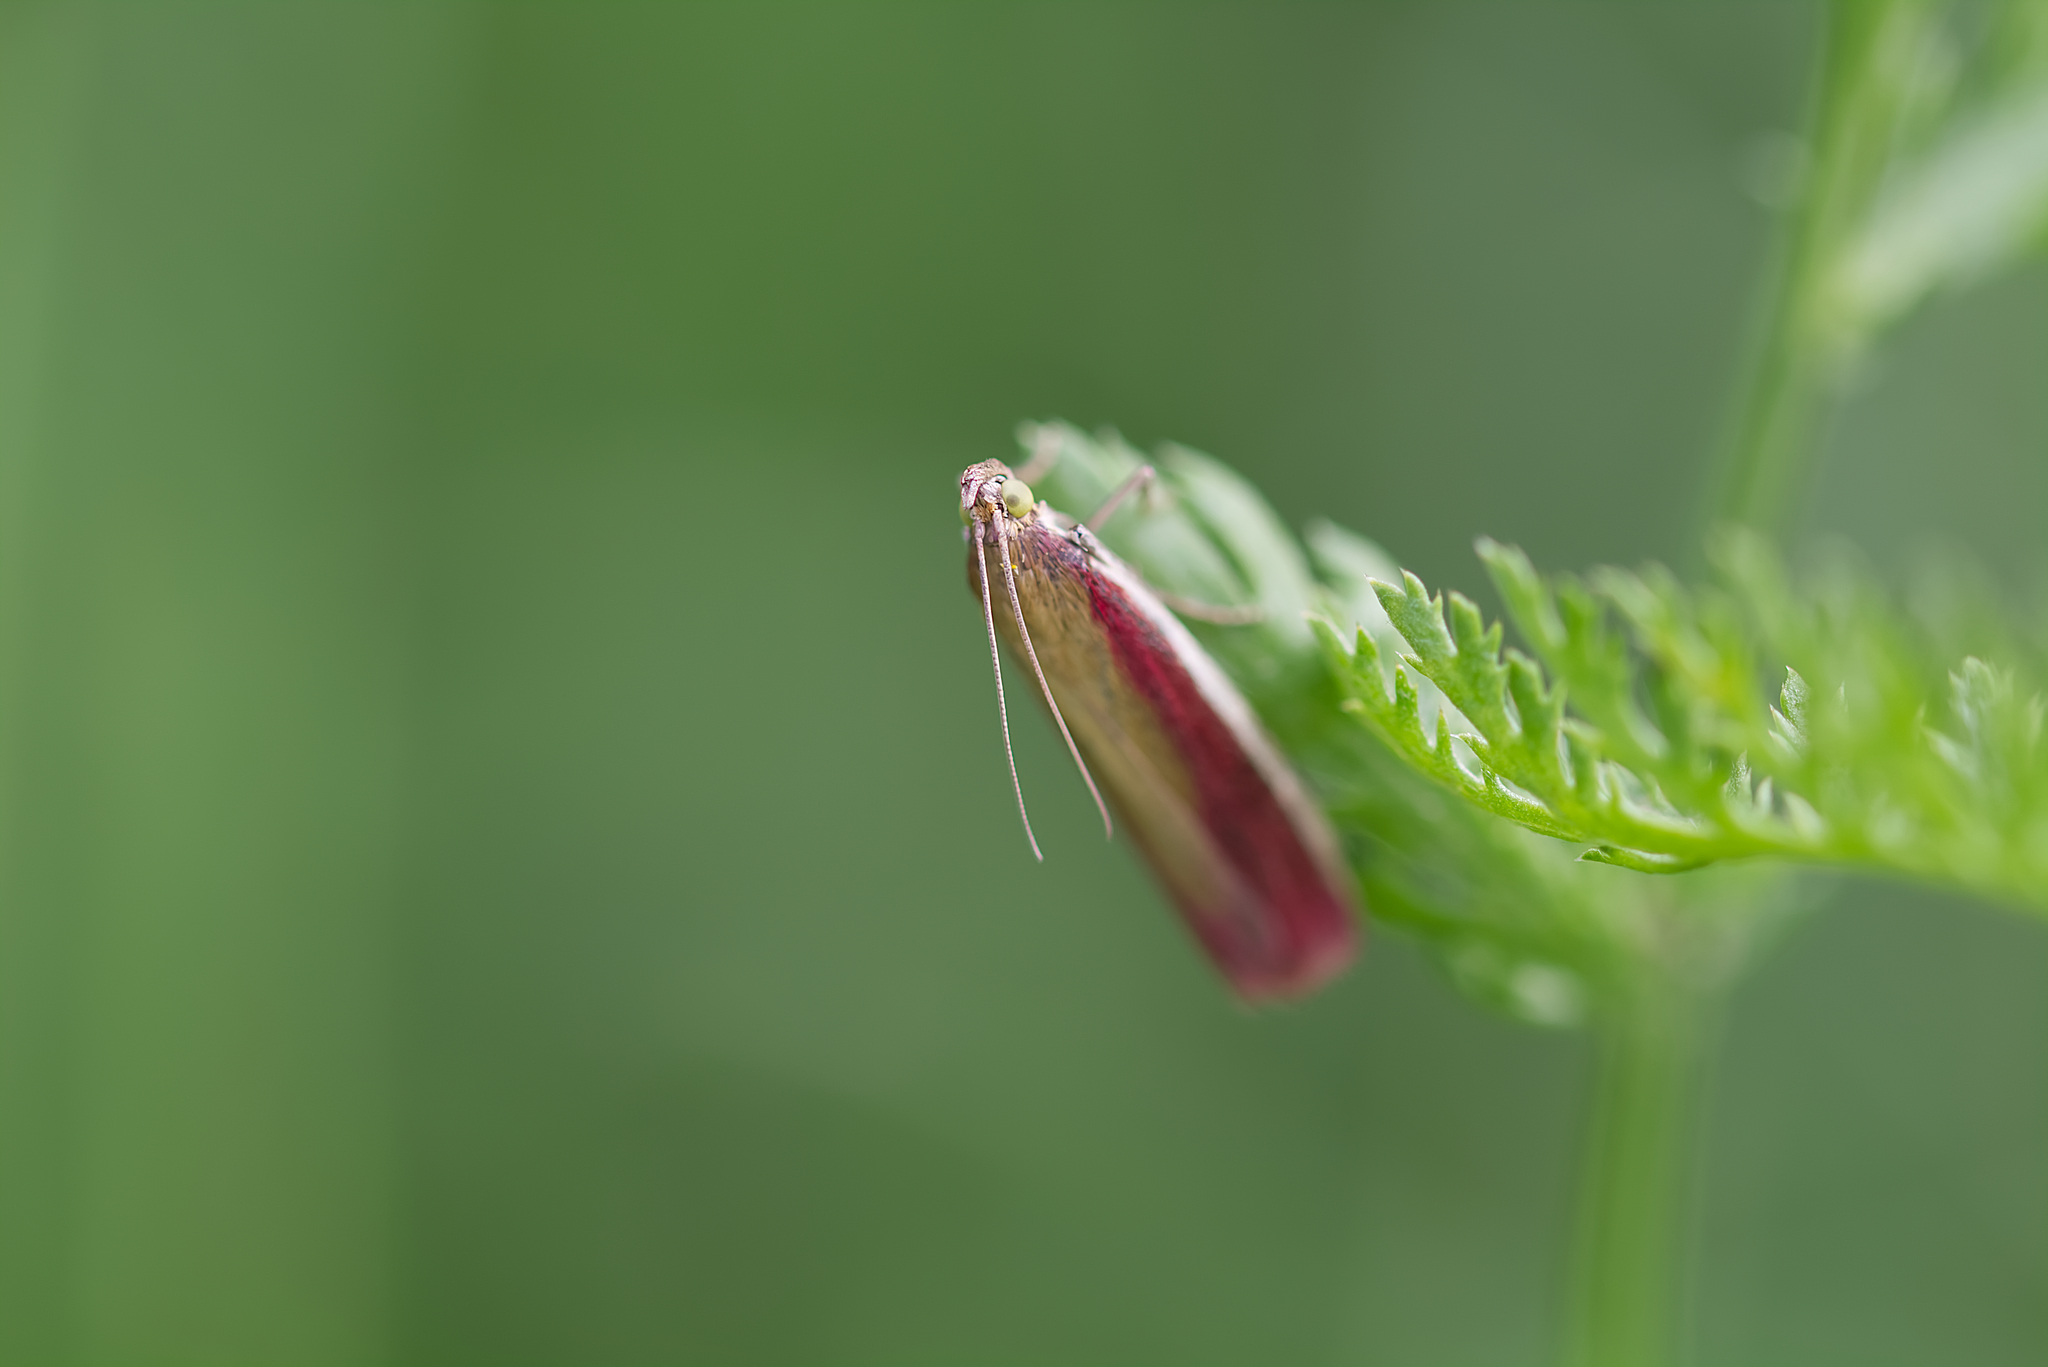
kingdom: Animalia
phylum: Arthropoda
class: Insecta
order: Lepidoptera
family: Pyralidae
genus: Oncocera
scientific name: Oncocera semirubella
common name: Rosy-striped knot-horn
